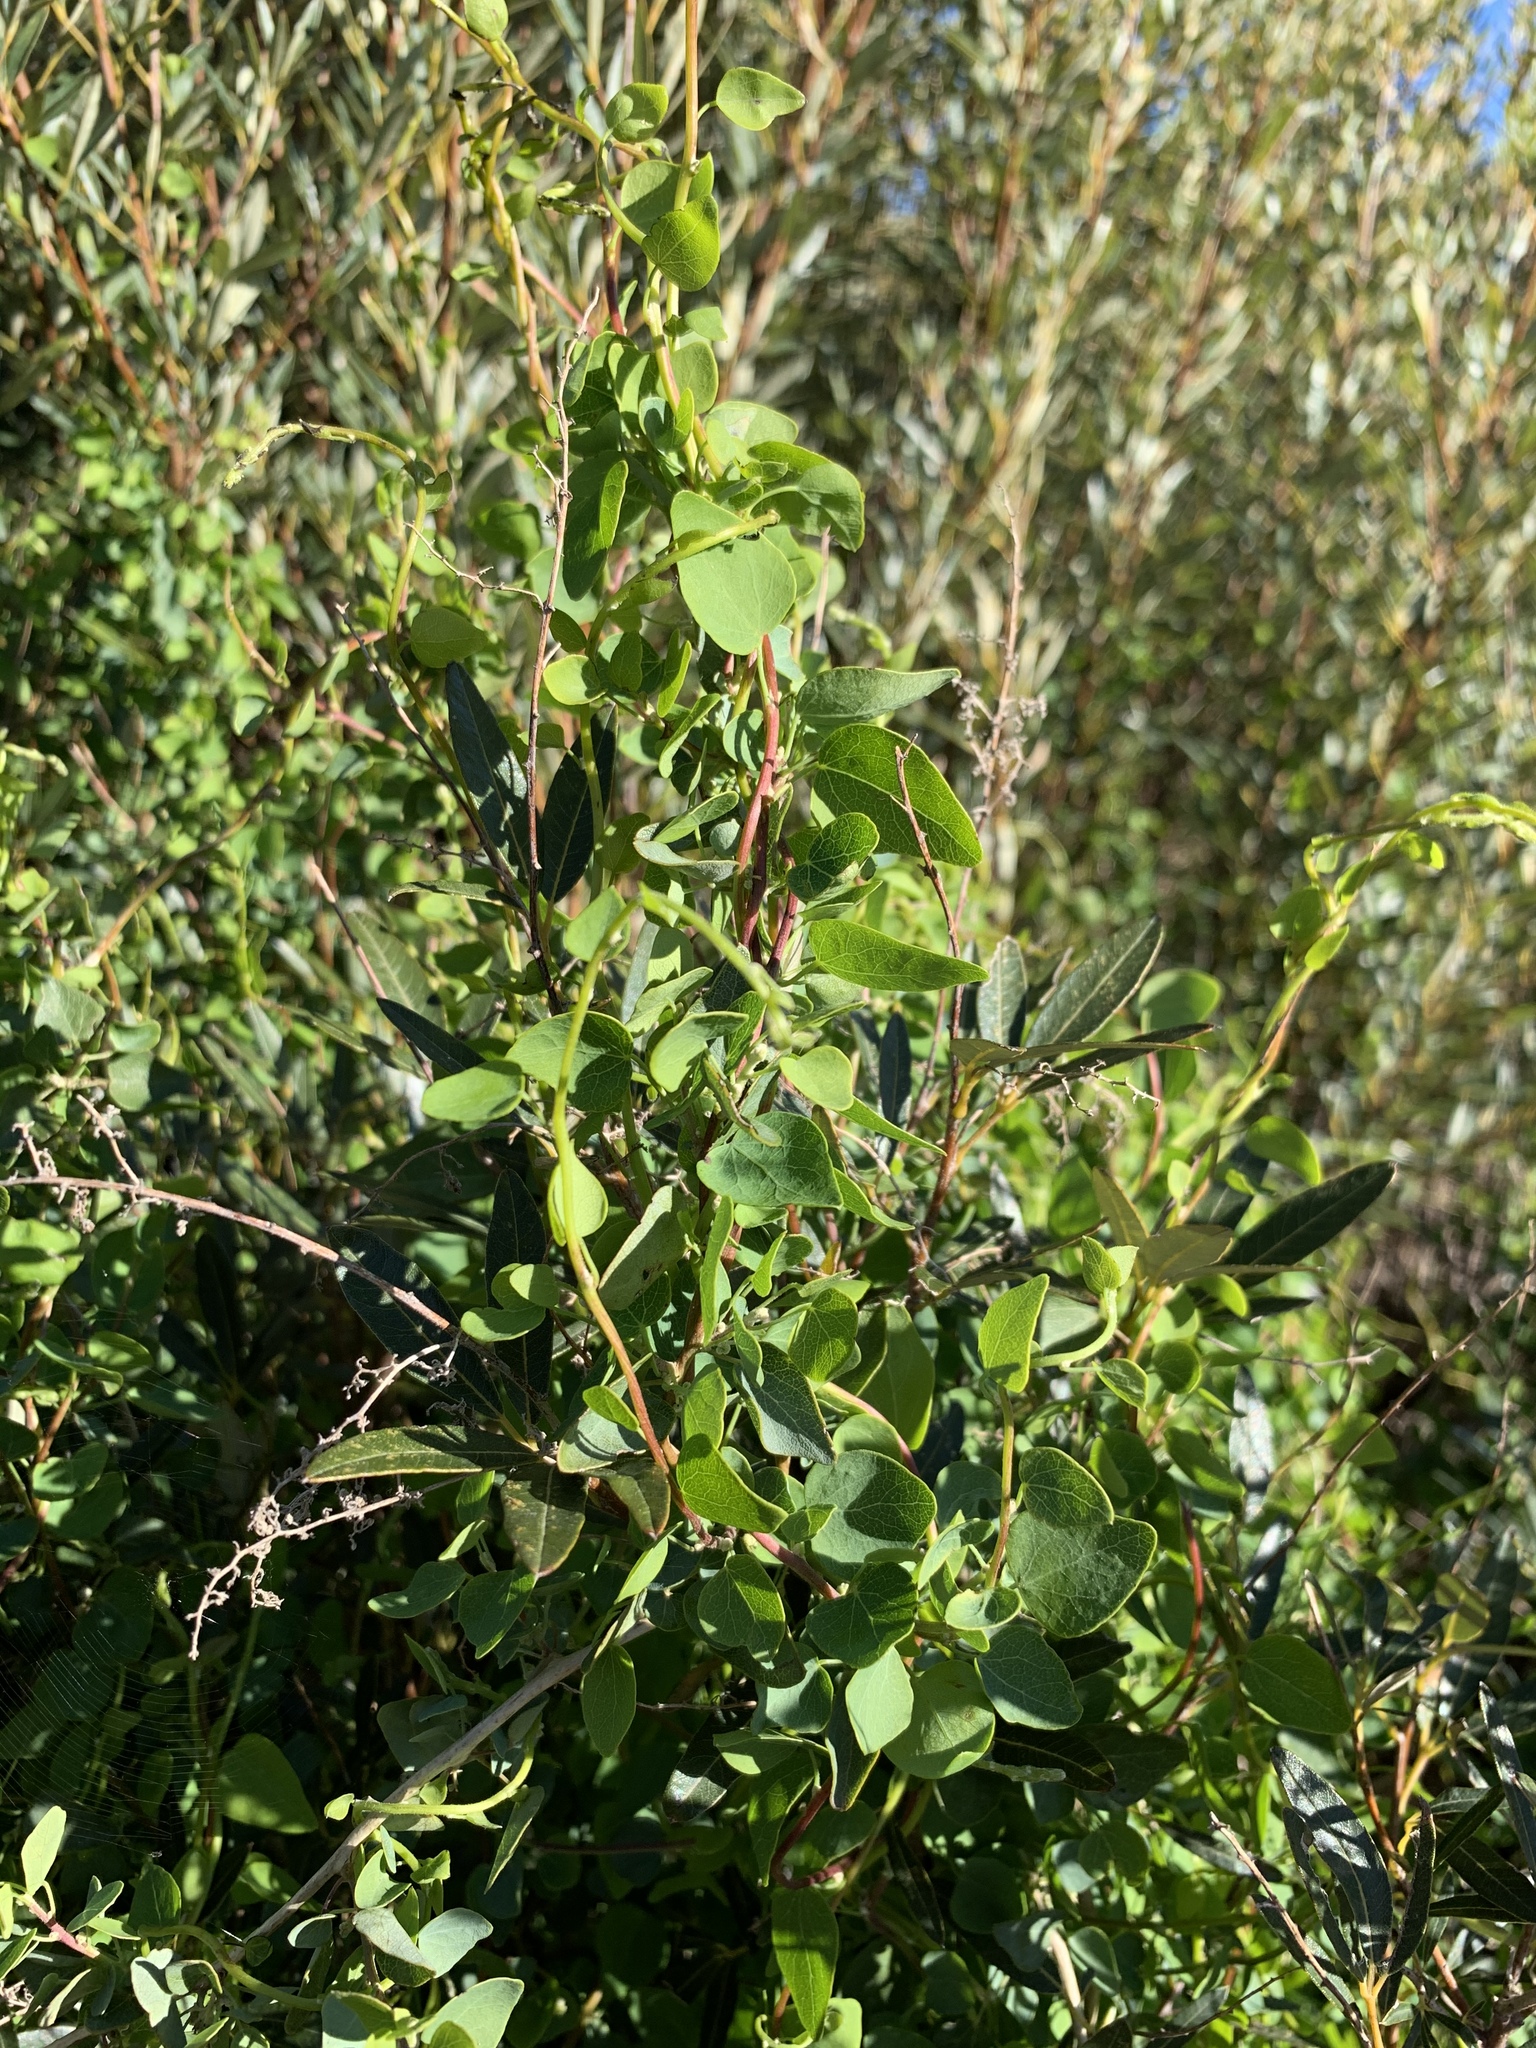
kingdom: Plantae
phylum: Tracheophyta
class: Magnoliopsida
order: Ranunculales
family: Menispermaceae
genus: Cissampelos
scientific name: Cissampelos capensis
